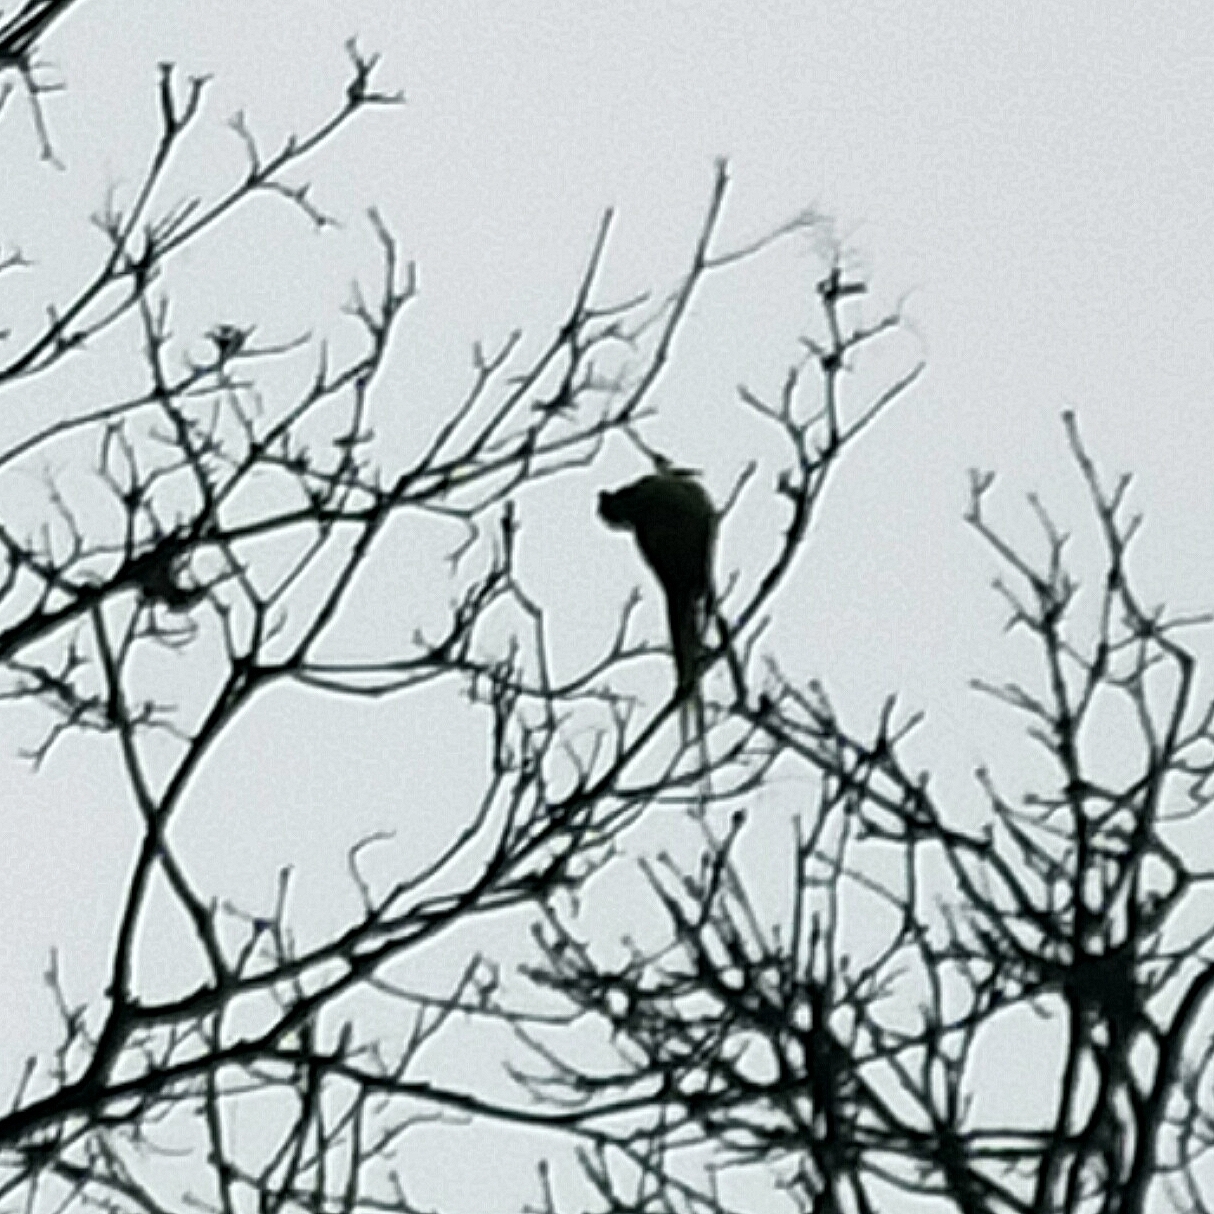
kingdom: Animalia
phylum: Chordata
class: Aves
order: Psittaciformes
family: Psittacidae
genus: Psittacula
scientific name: Psittacula krameri
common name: Rose-ringed parakeet
